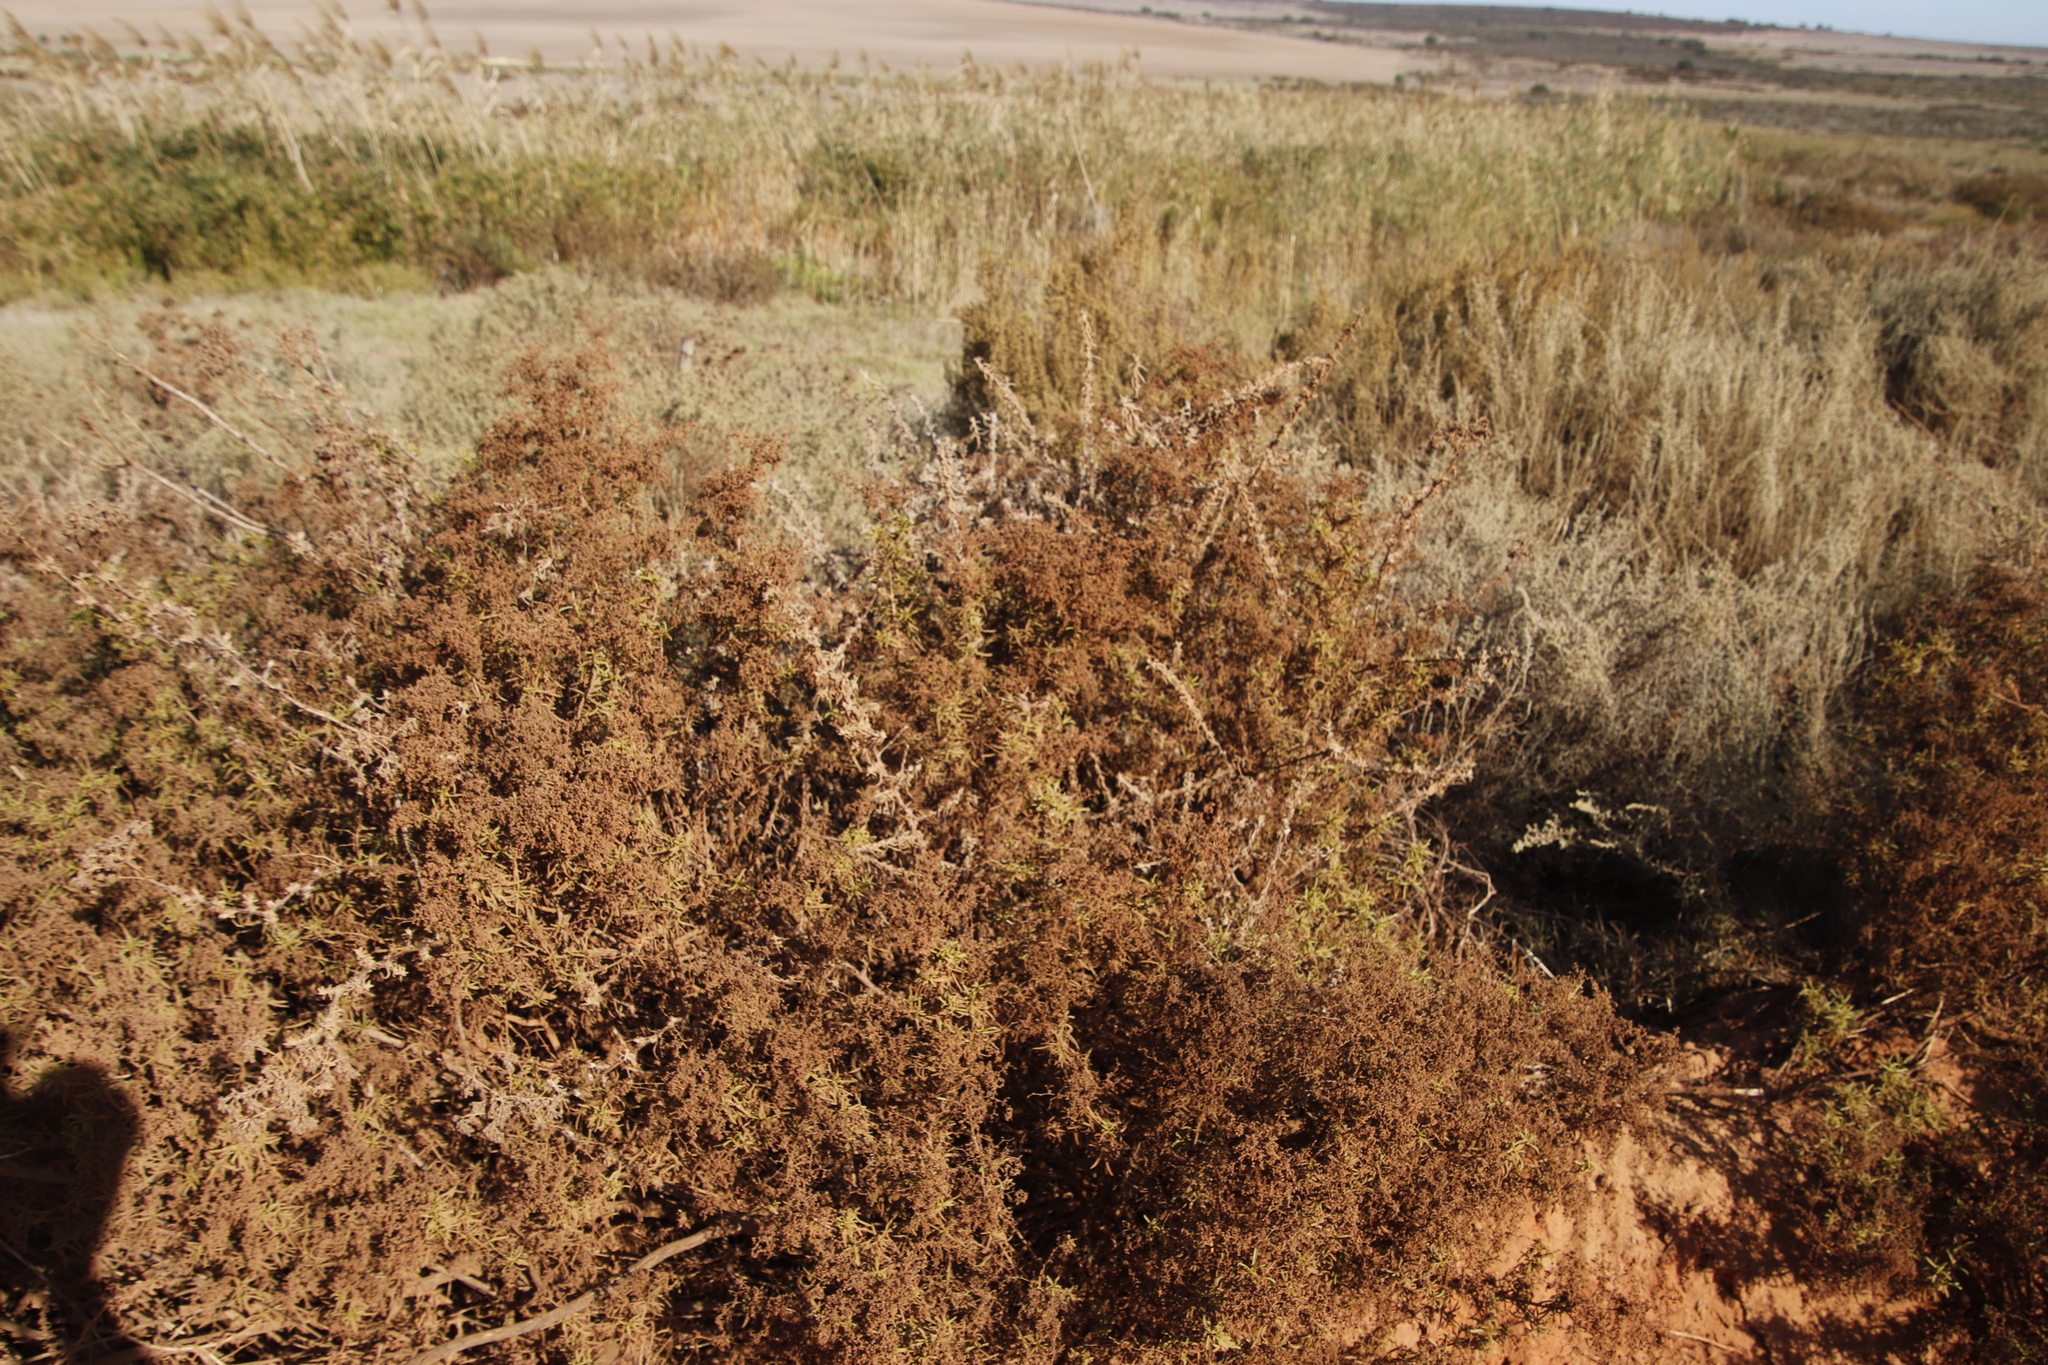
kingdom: Plantae
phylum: Tracheophyta
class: Magnoliopsida
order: Caryophyllales
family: Aizoaceae
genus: Aizoon
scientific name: Aizoon africanum
